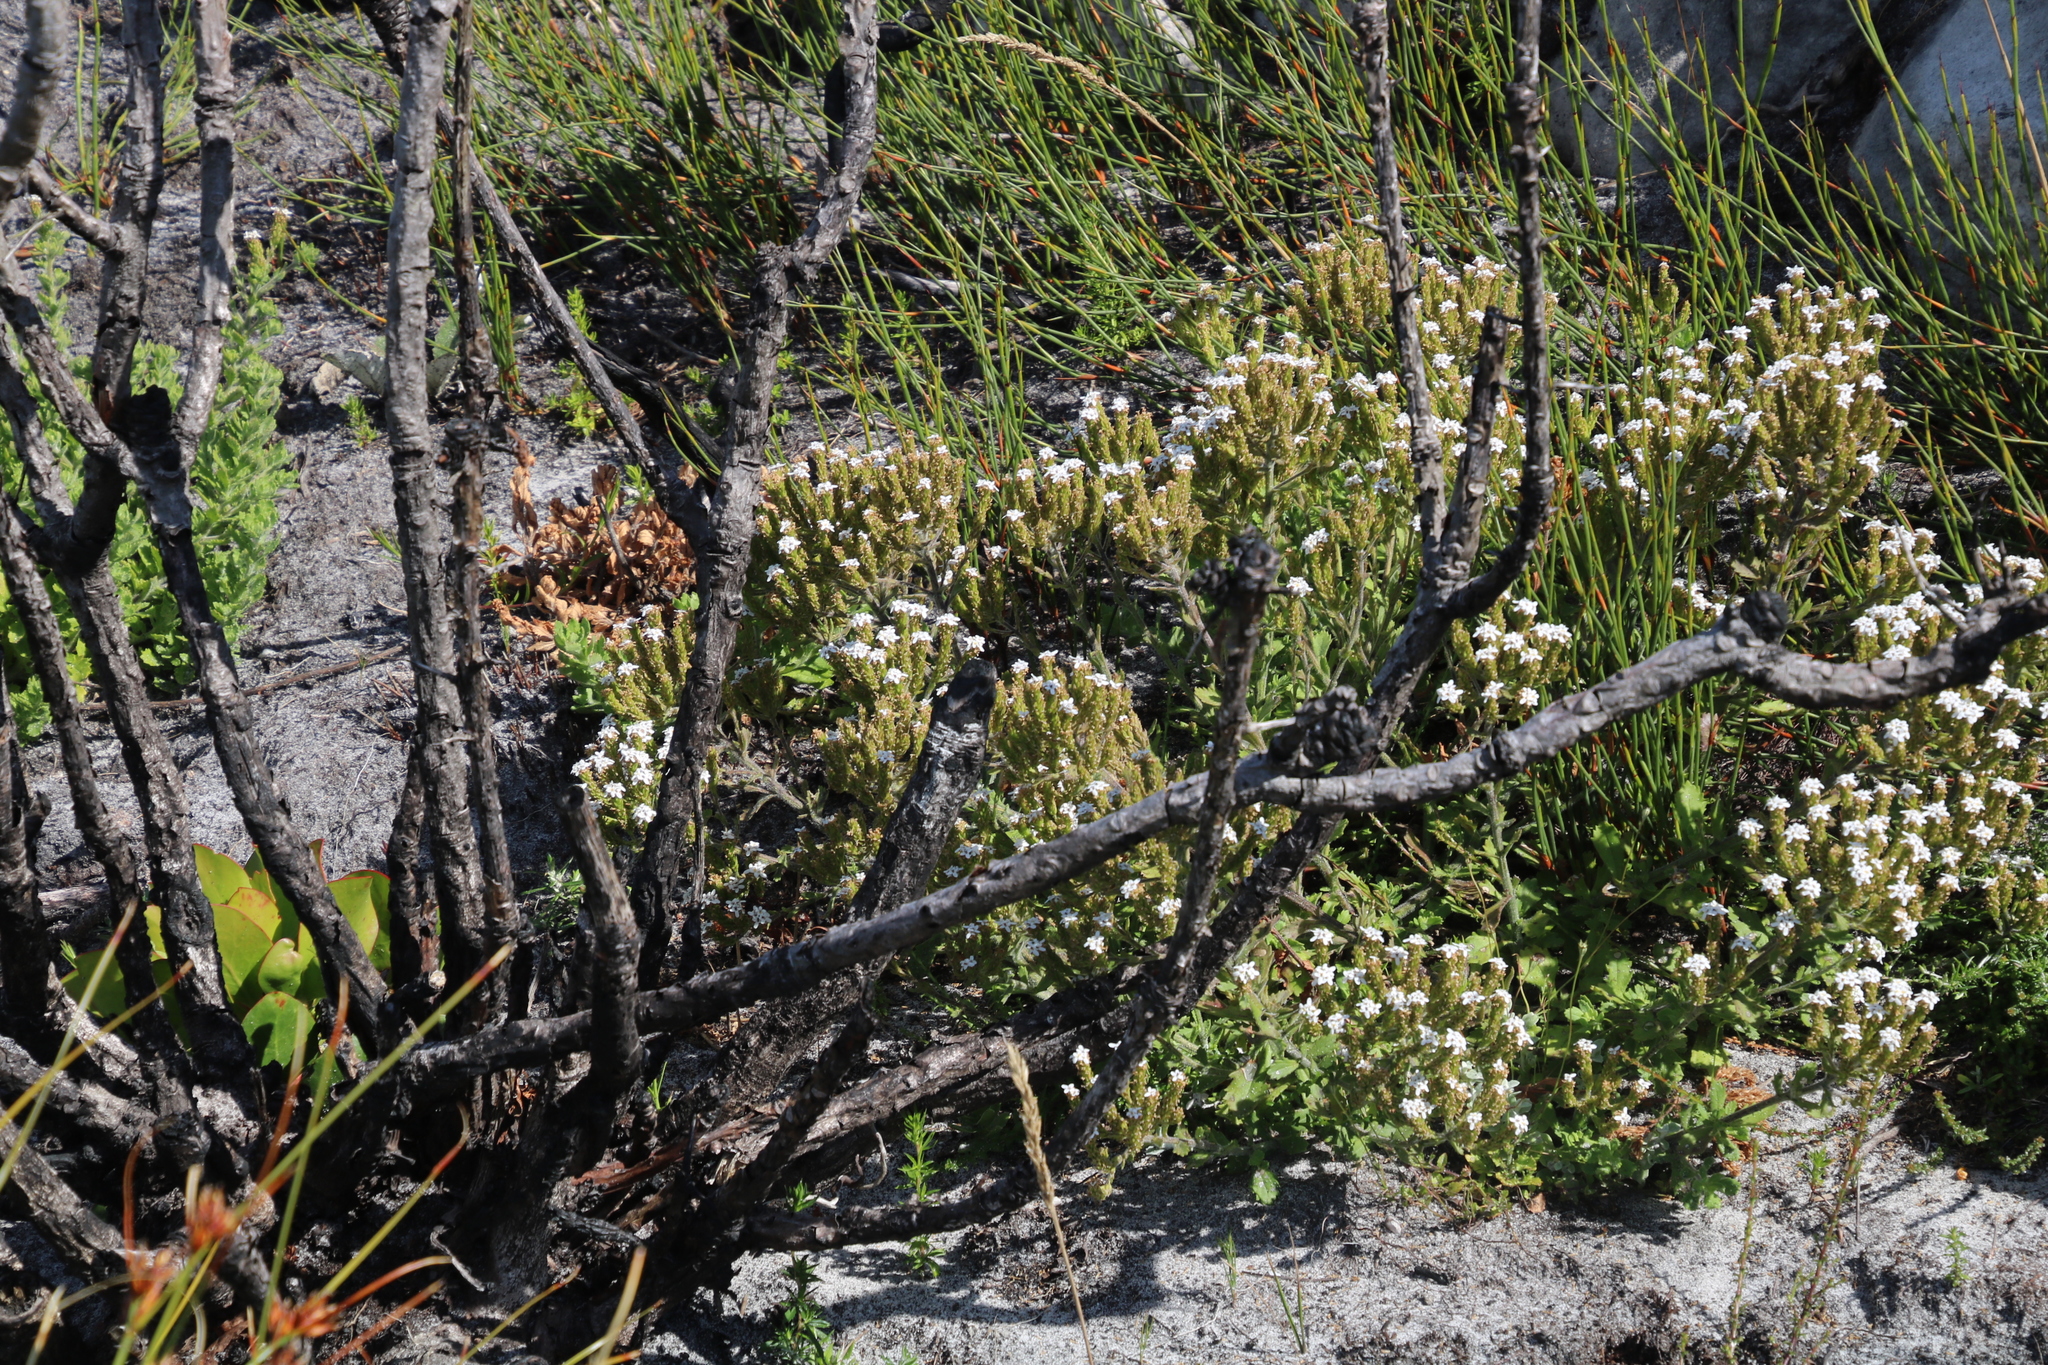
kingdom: Plantae
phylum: Tracheophyta
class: Magnoliopsida
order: Lamiales
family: Scrophulariaceae
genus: Pseudoselago
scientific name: Pseudoselago peninsulae
